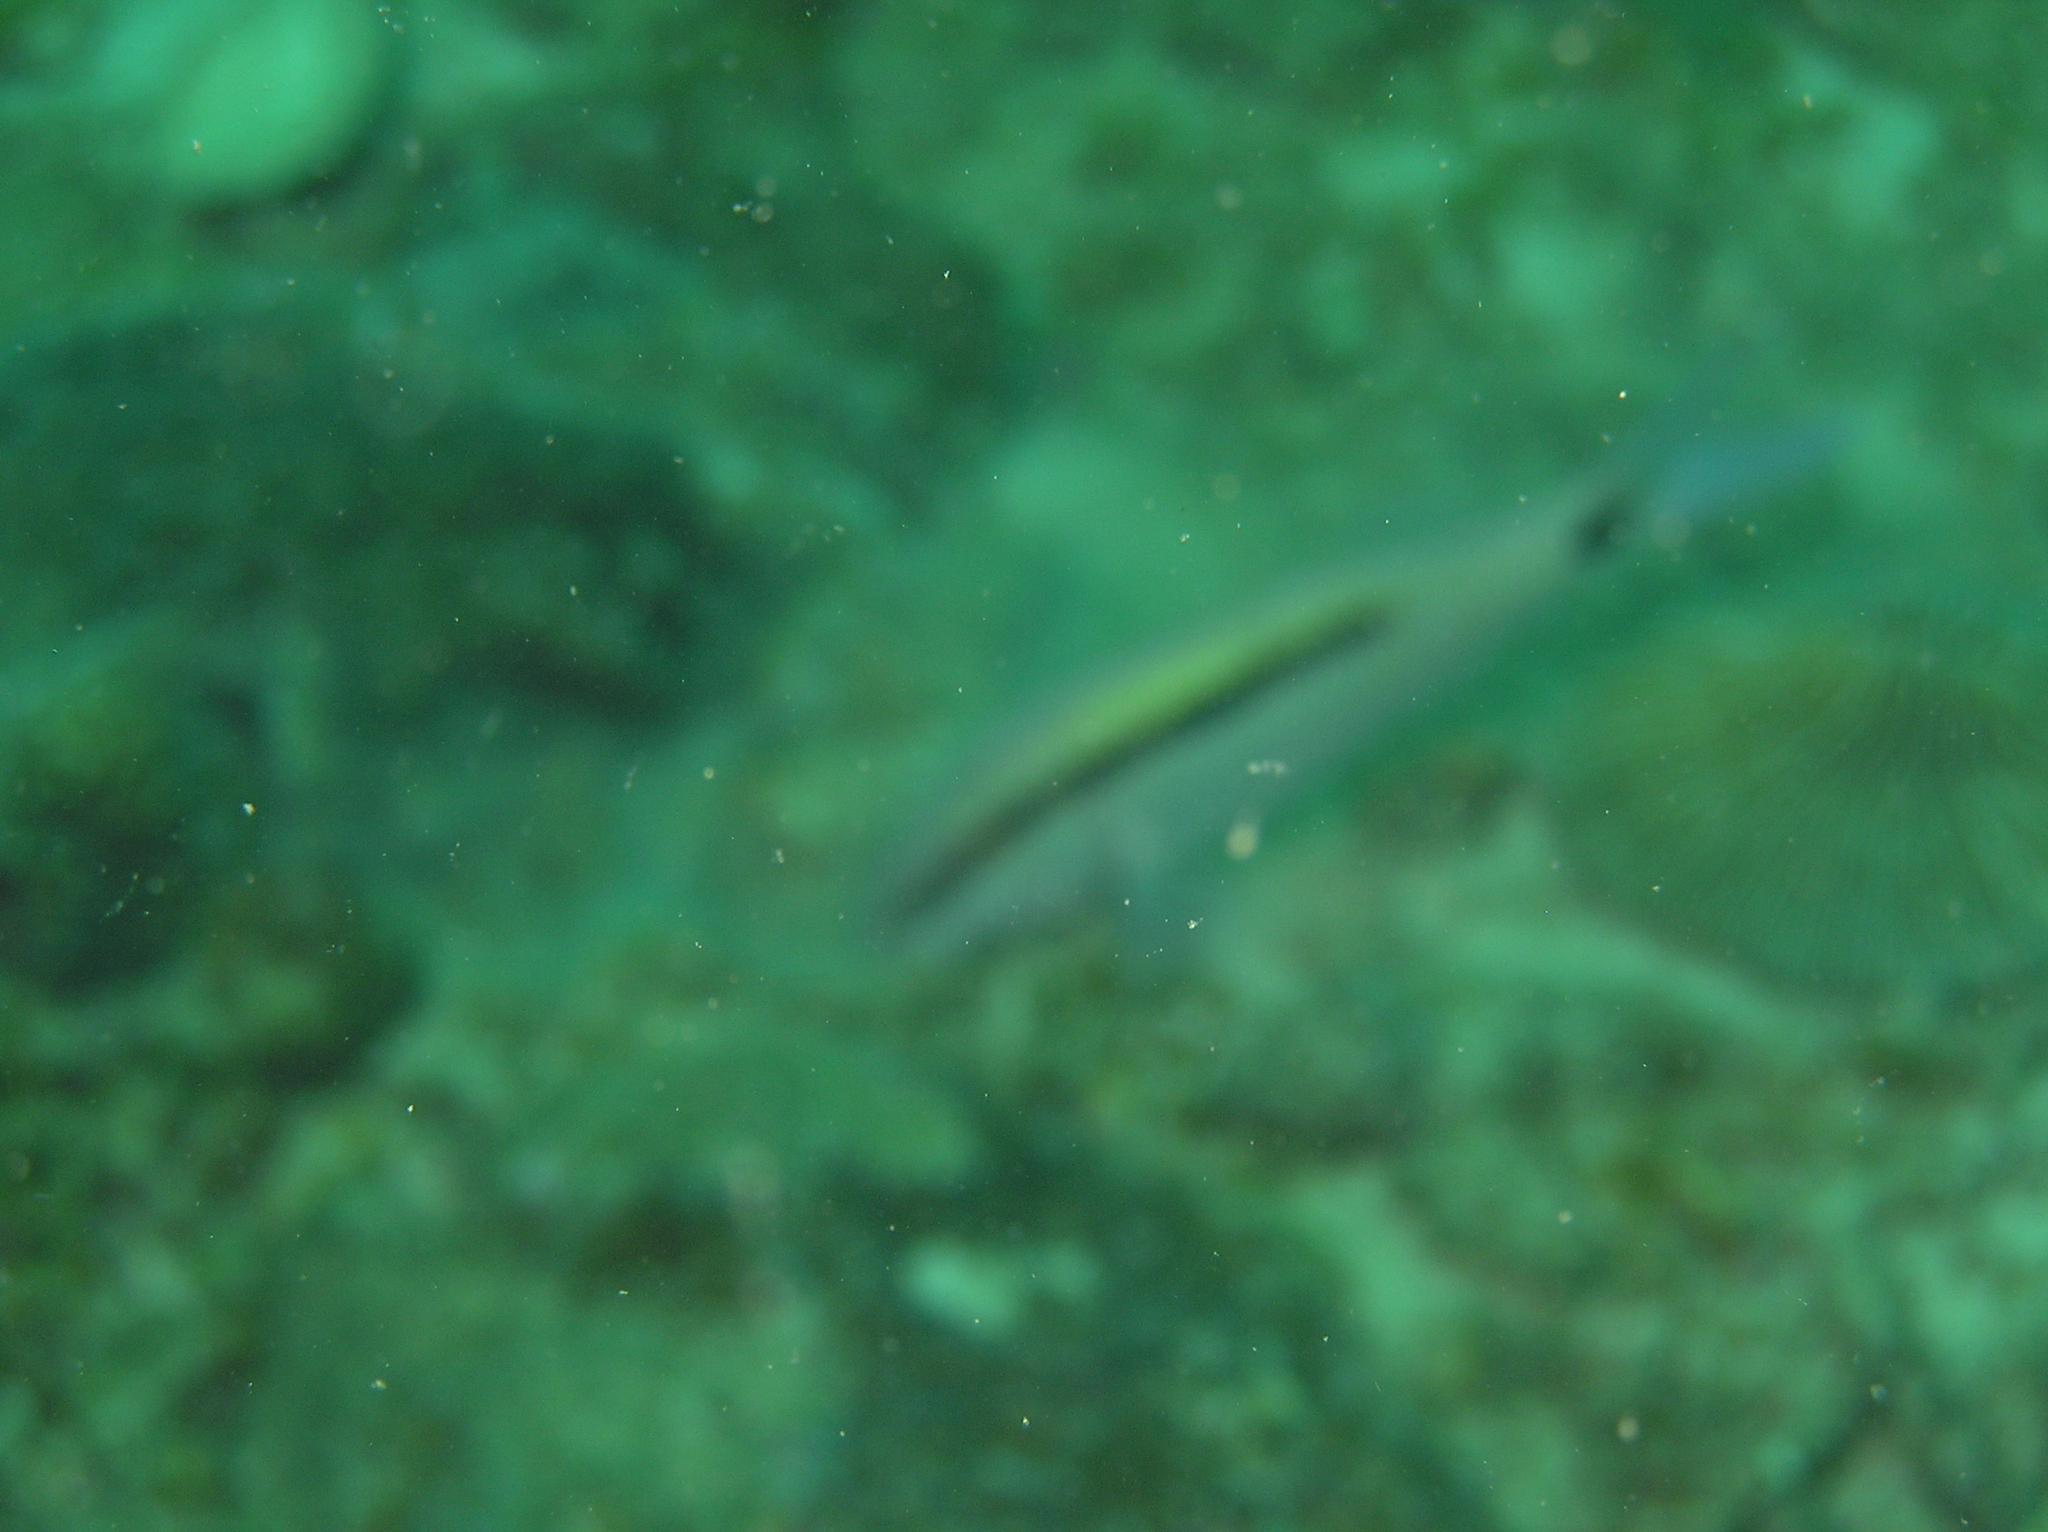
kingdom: Animalia
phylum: Chordata
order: Perciformes
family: Mullidae
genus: Parupeneus
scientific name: Parupeneus barberinus
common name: Dash-and-dot goatfish
